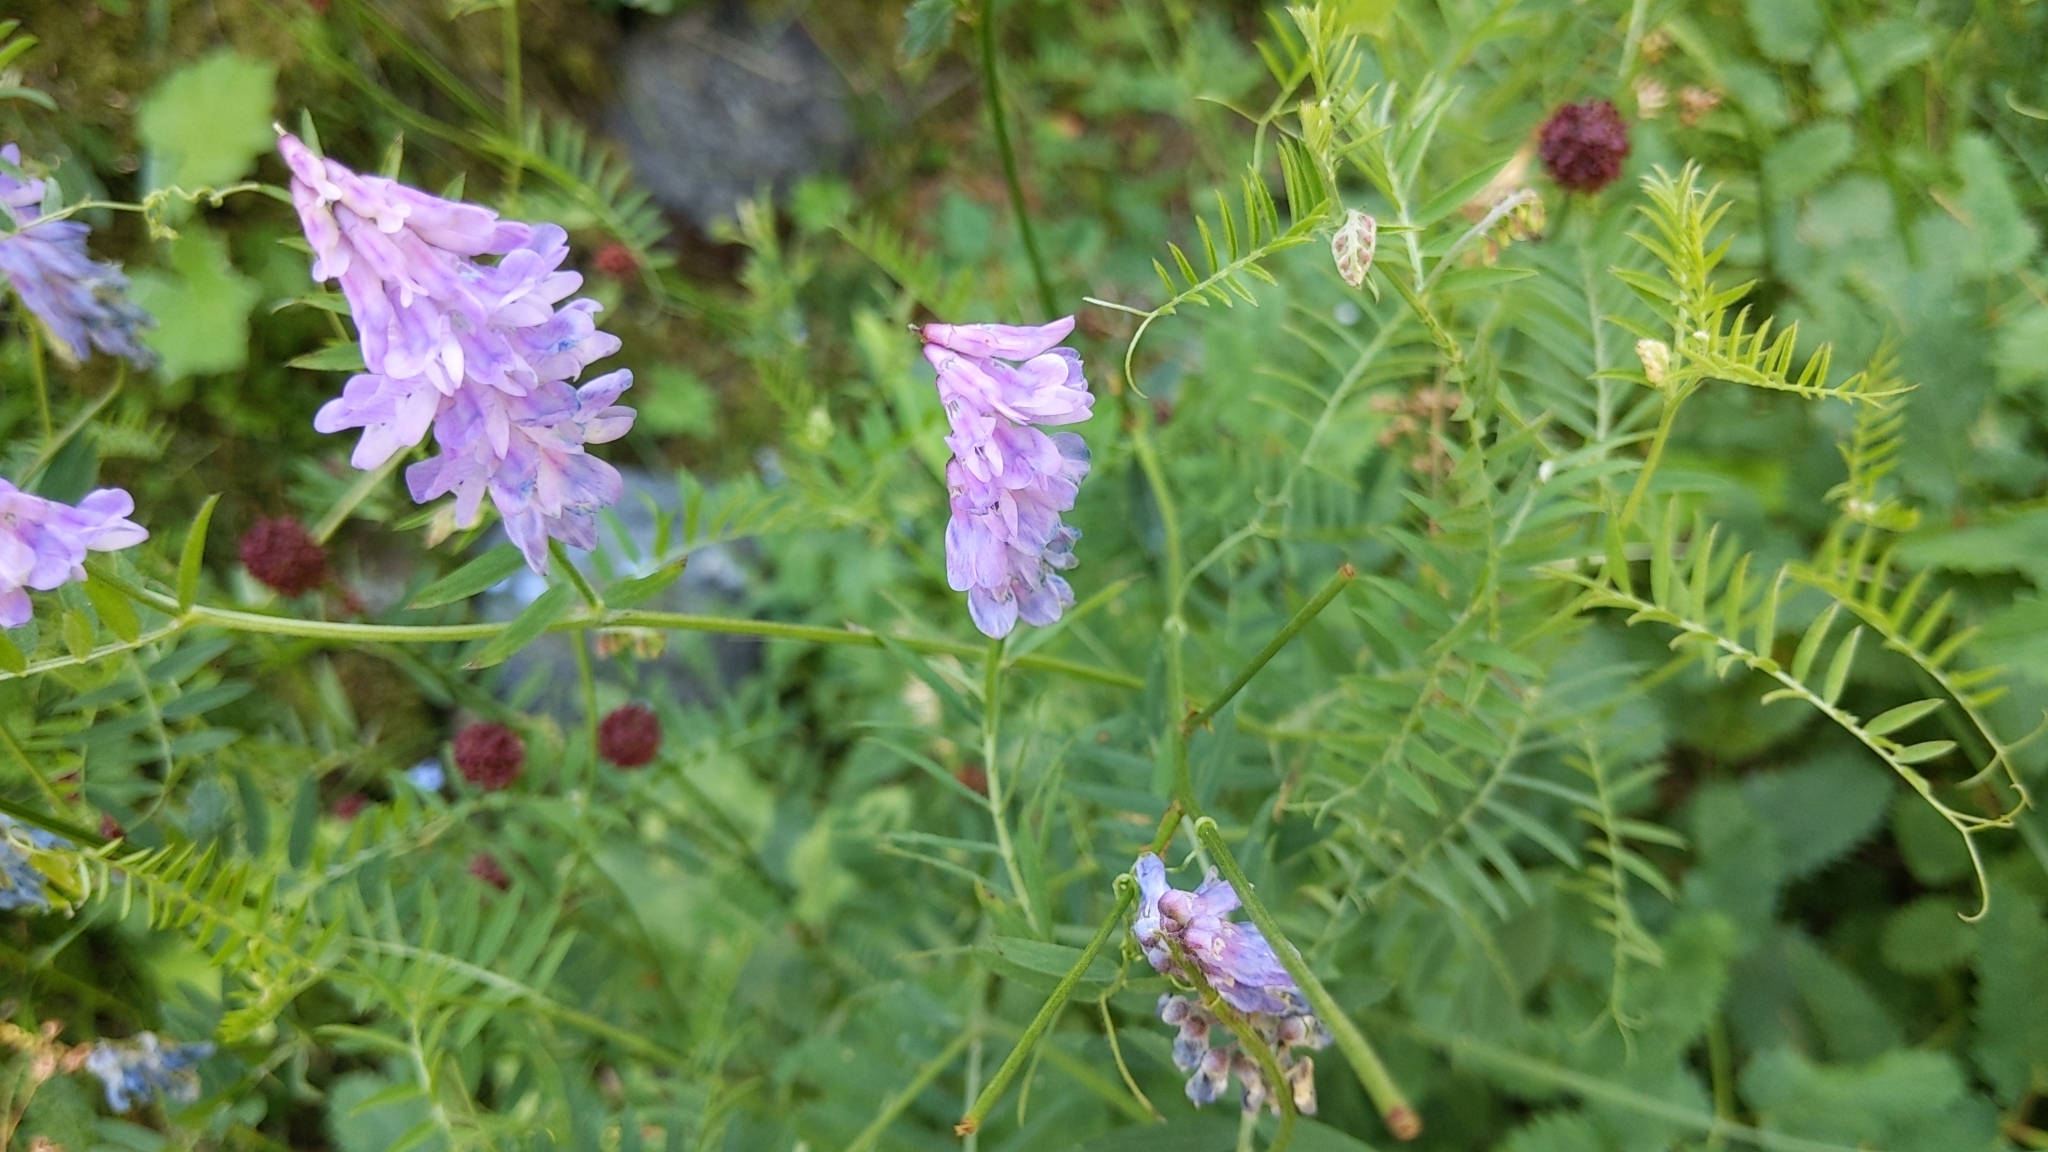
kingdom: Plantae
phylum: Tracheophyta
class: Magnoliopsida
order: Fabales
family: Fabaceae
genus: Vicia
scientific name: Vicia cracca
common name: Bird vetch
